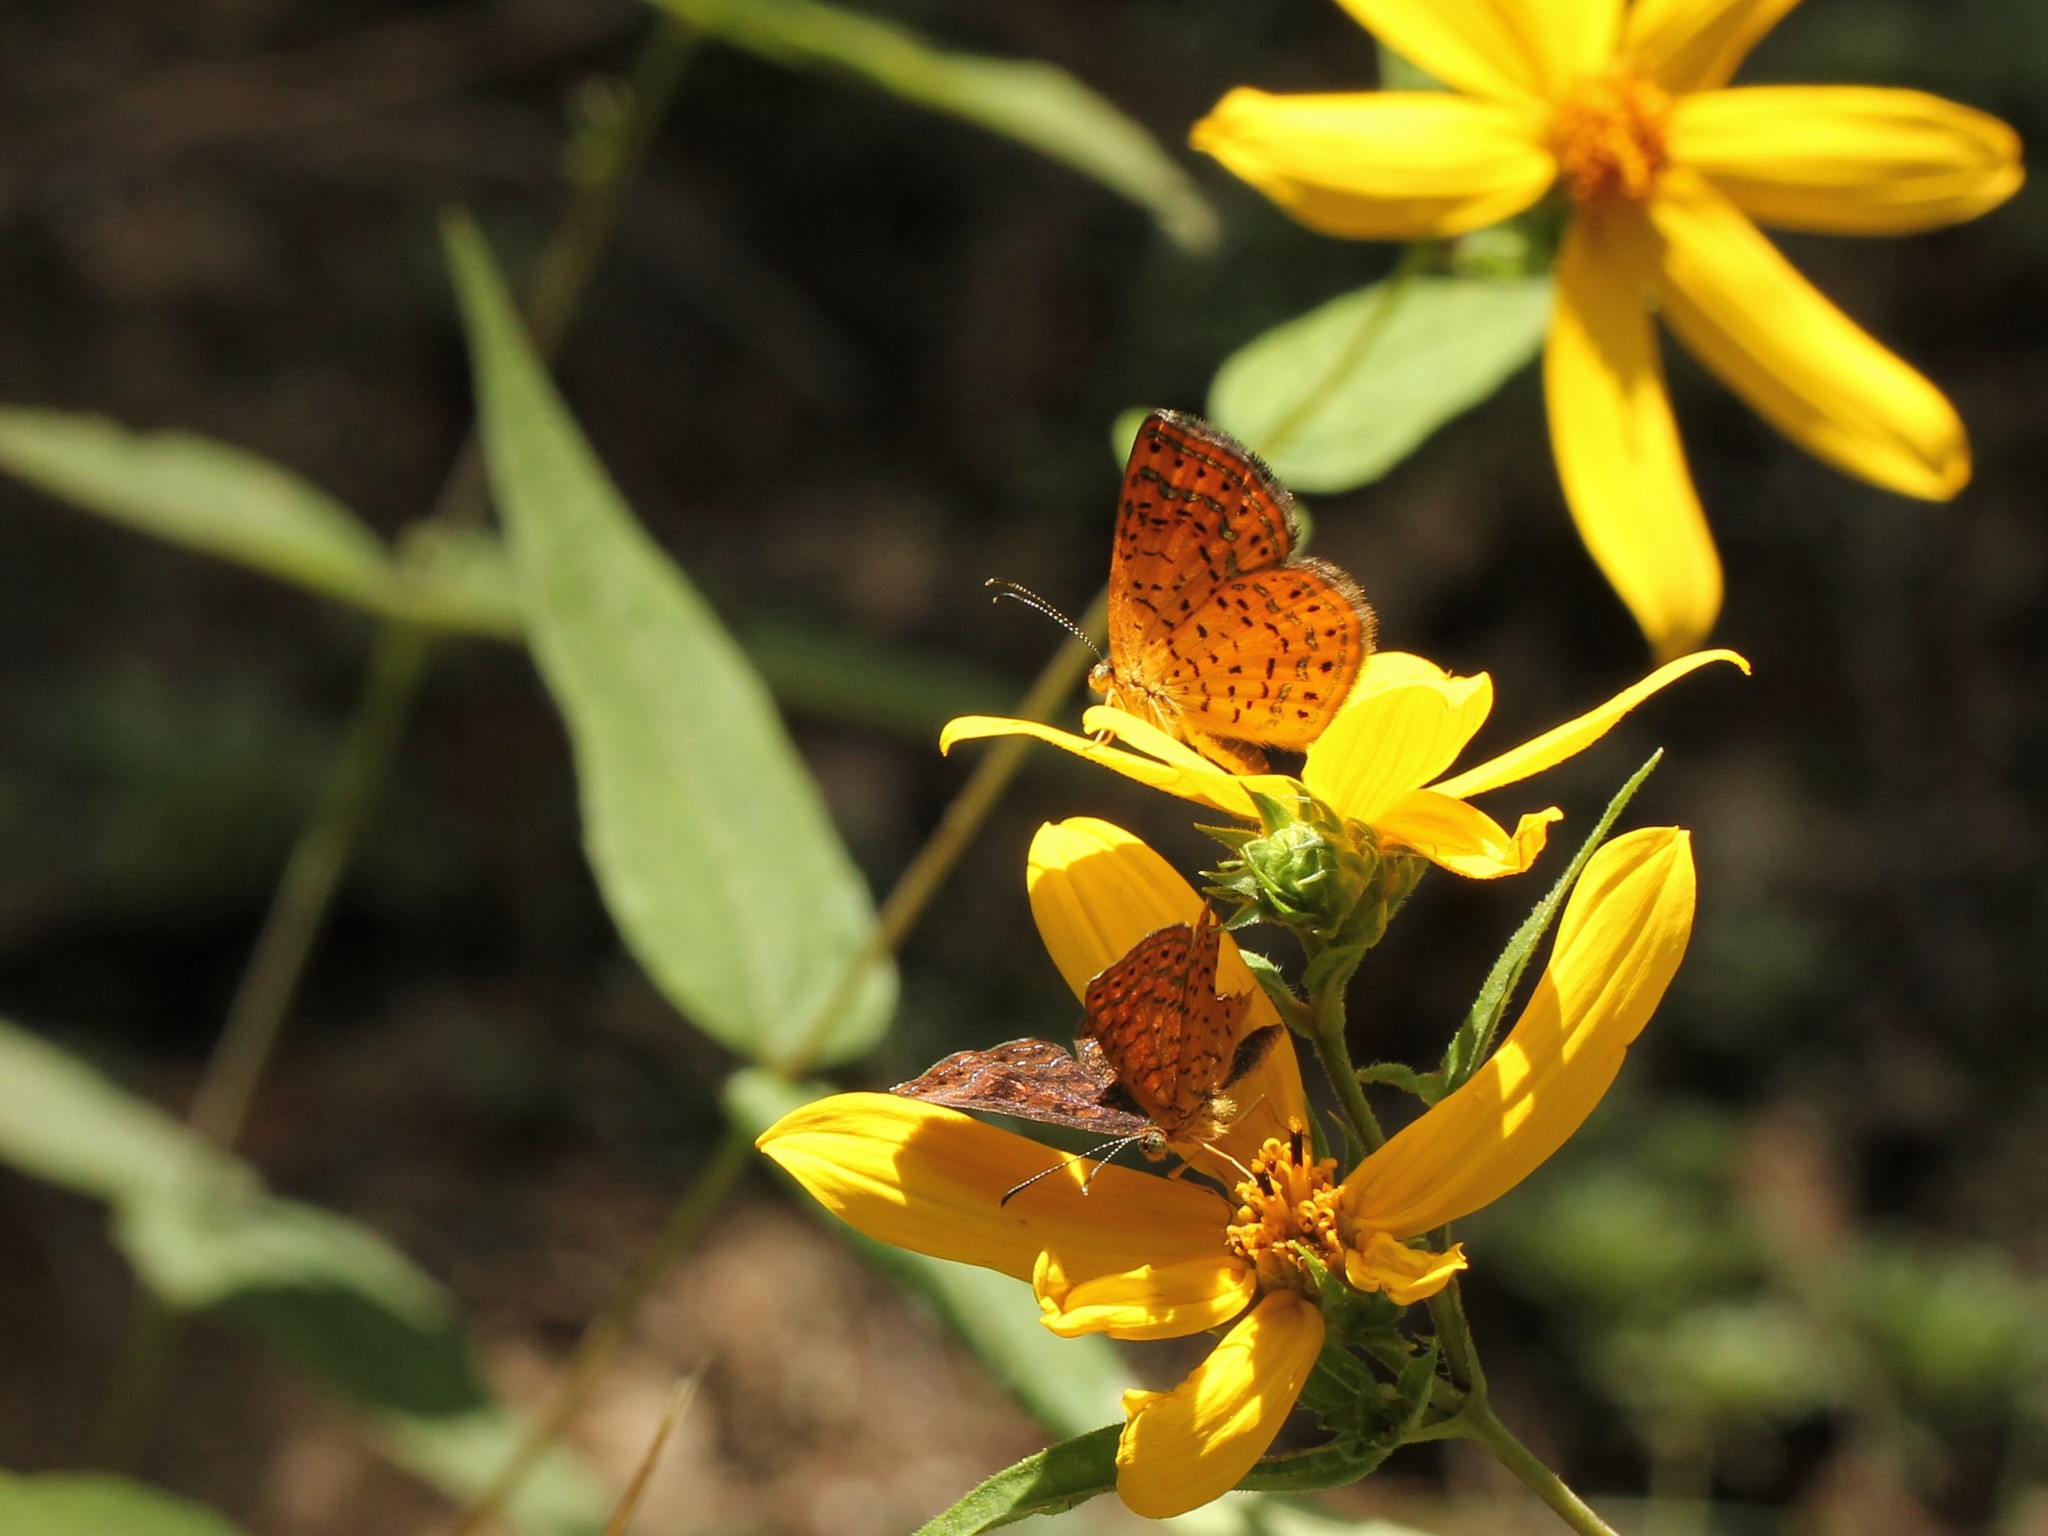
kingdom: Animalia
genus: Calephelis
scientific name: Calephelis borealis
